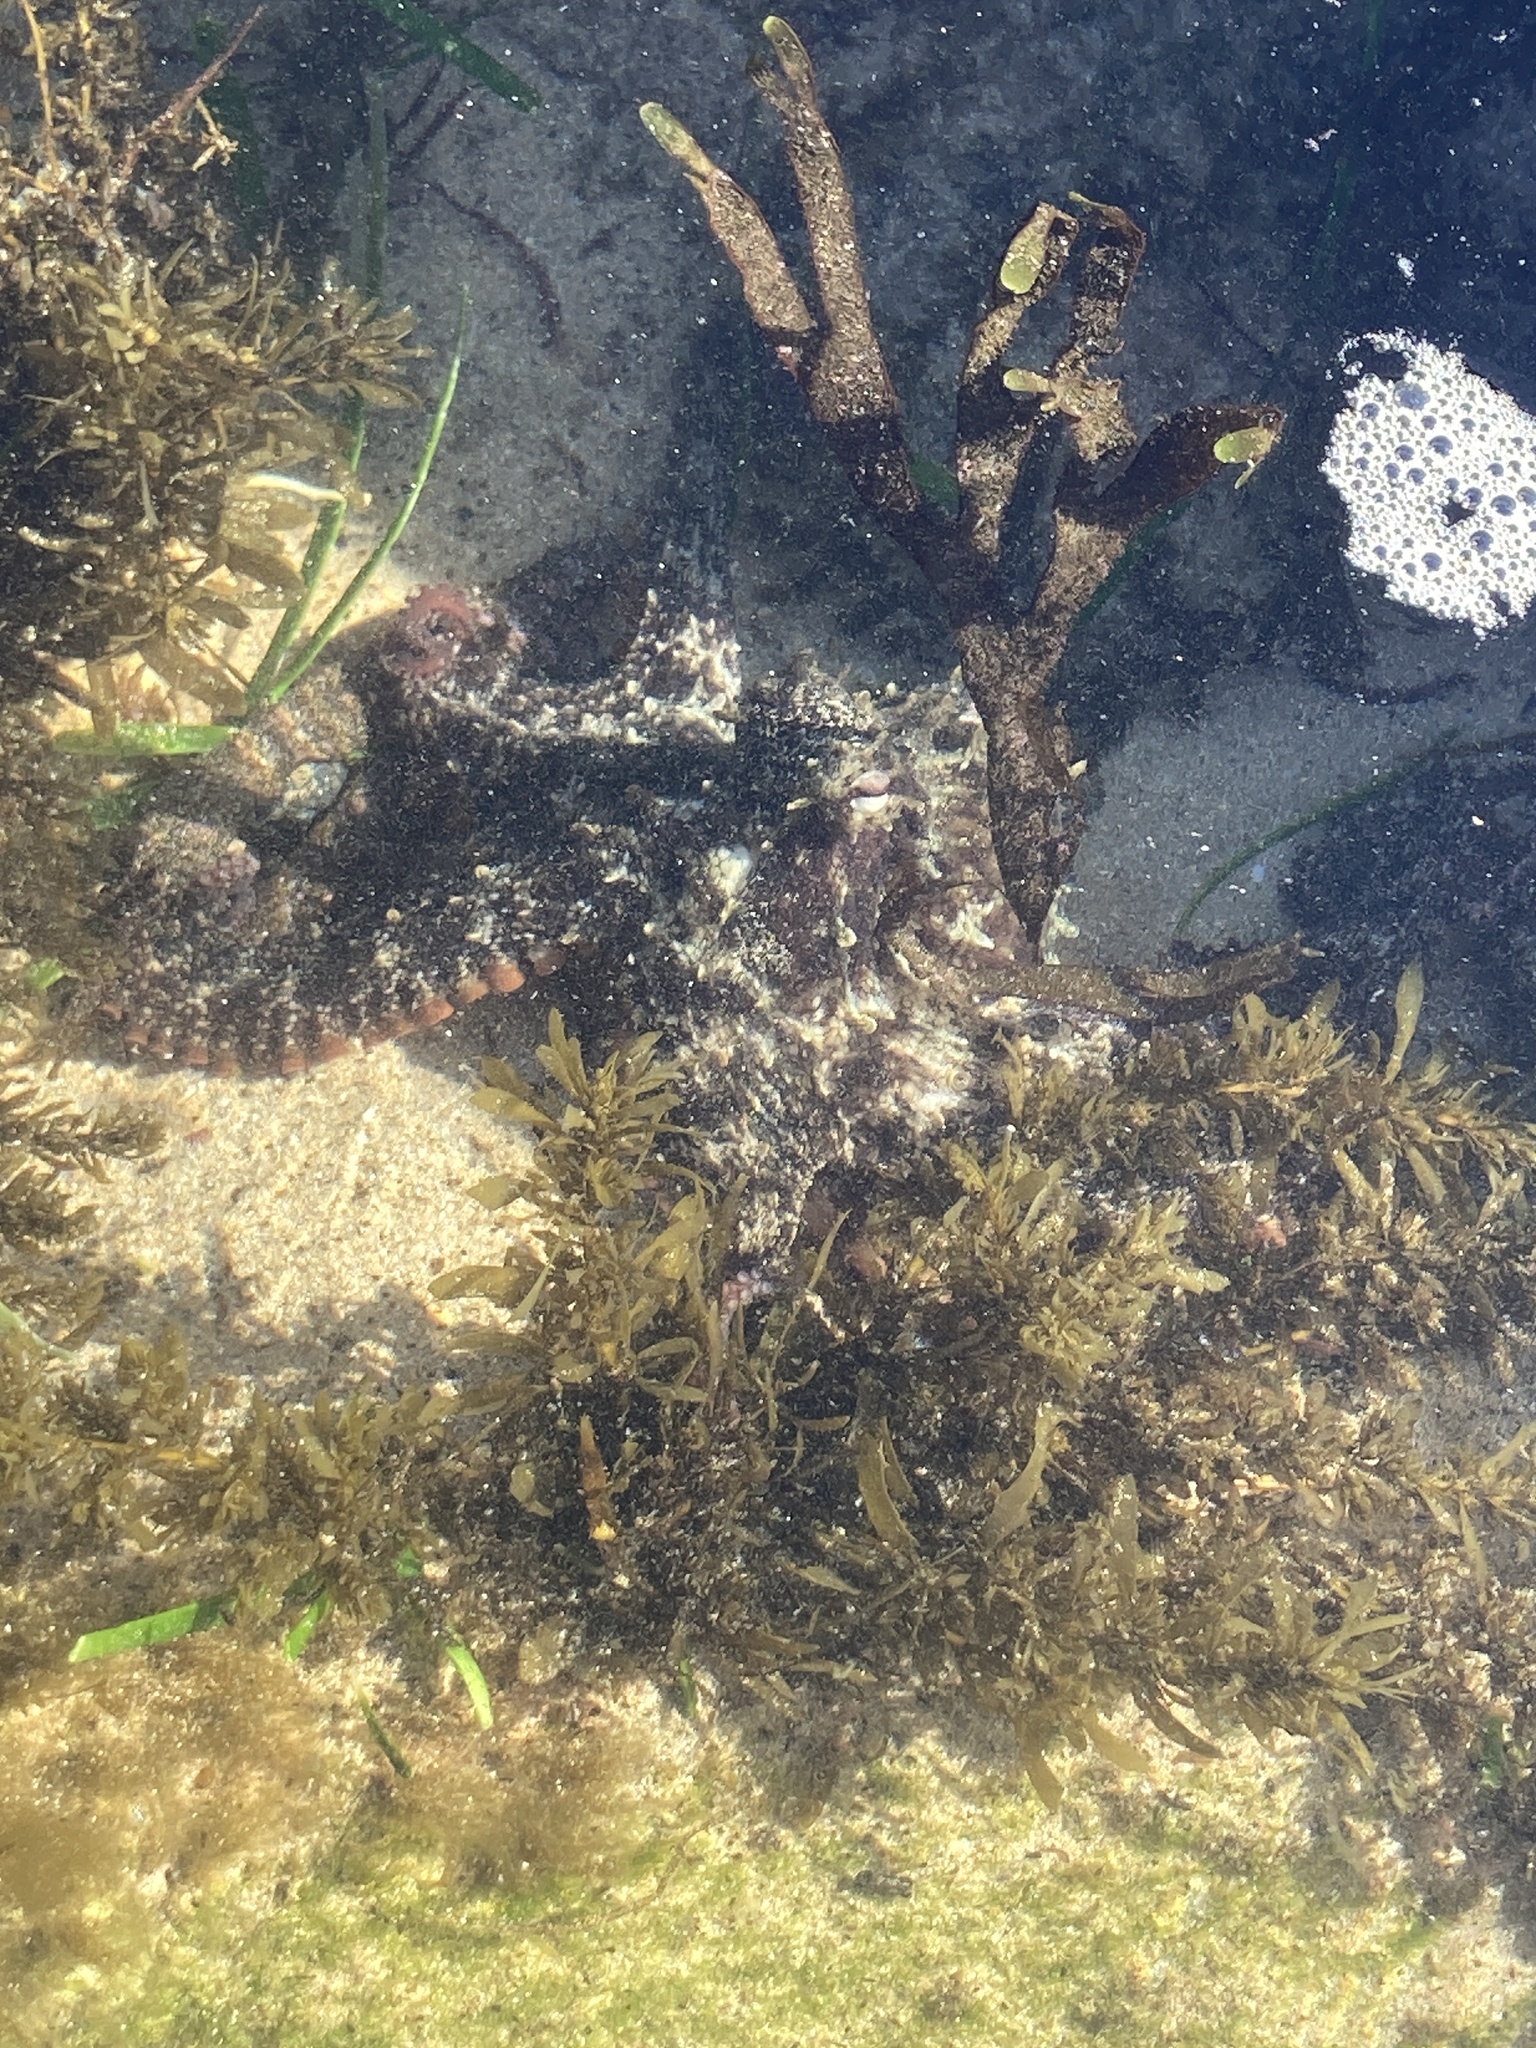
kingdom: Animalia
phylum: Mollusca
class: Cephalopoda
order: Octopoda
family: Octopodidae
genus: Octopus
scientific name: Octopus tetricus
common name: Sydney octopus
